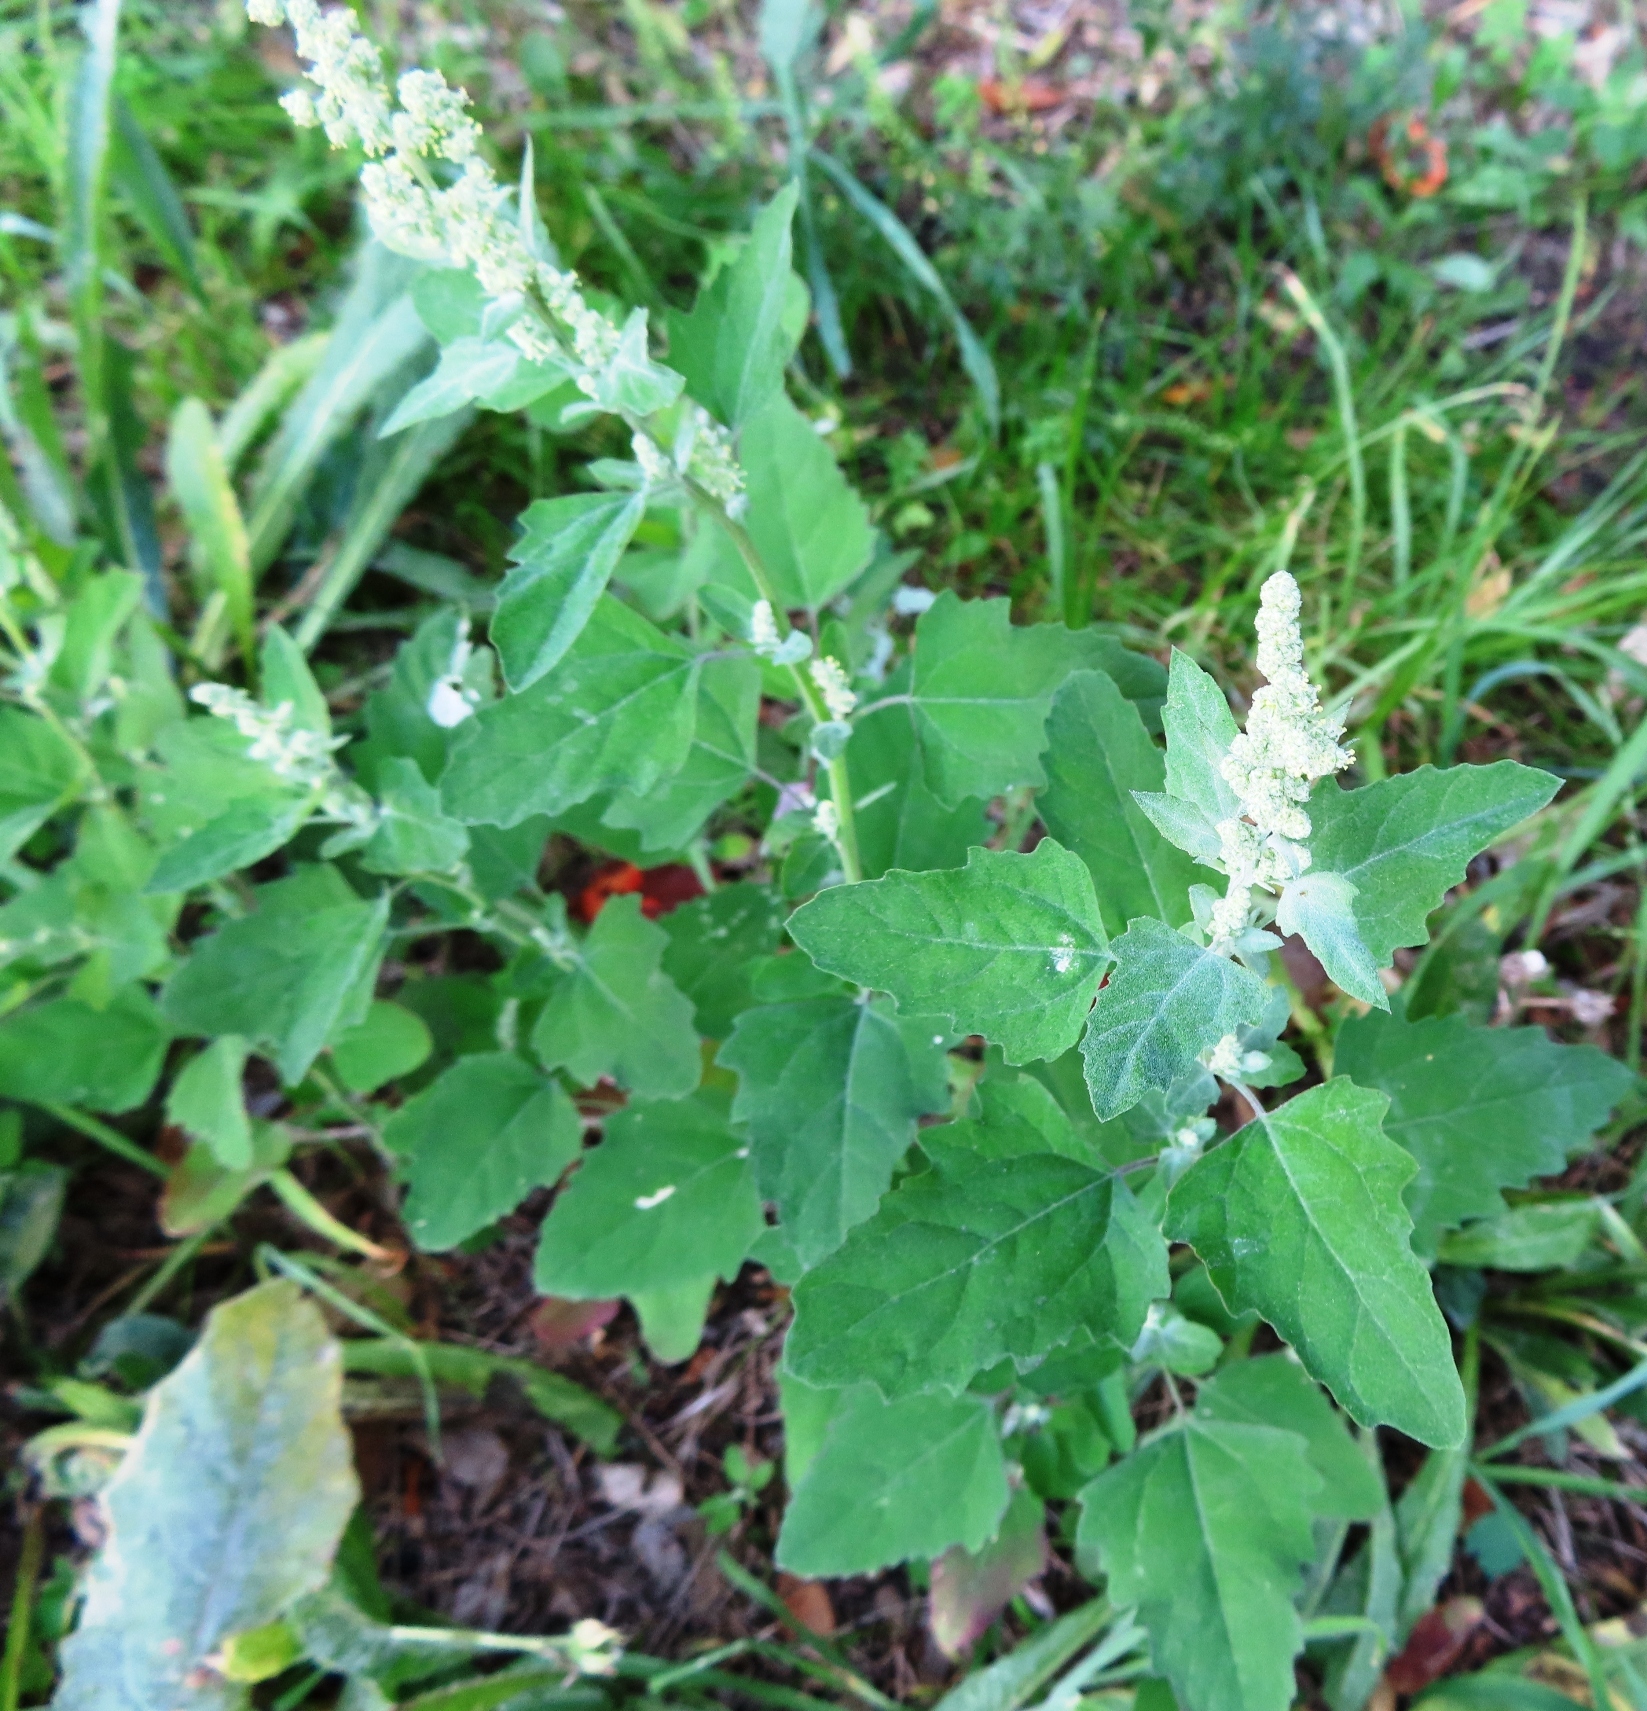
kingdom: Plantae
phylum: Tracheophyta
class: Magnoliopsida
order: Caryophyllales
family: Amaranthaceae
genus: Chenopodium
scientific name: Chenopodium album
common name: Fat-hen
